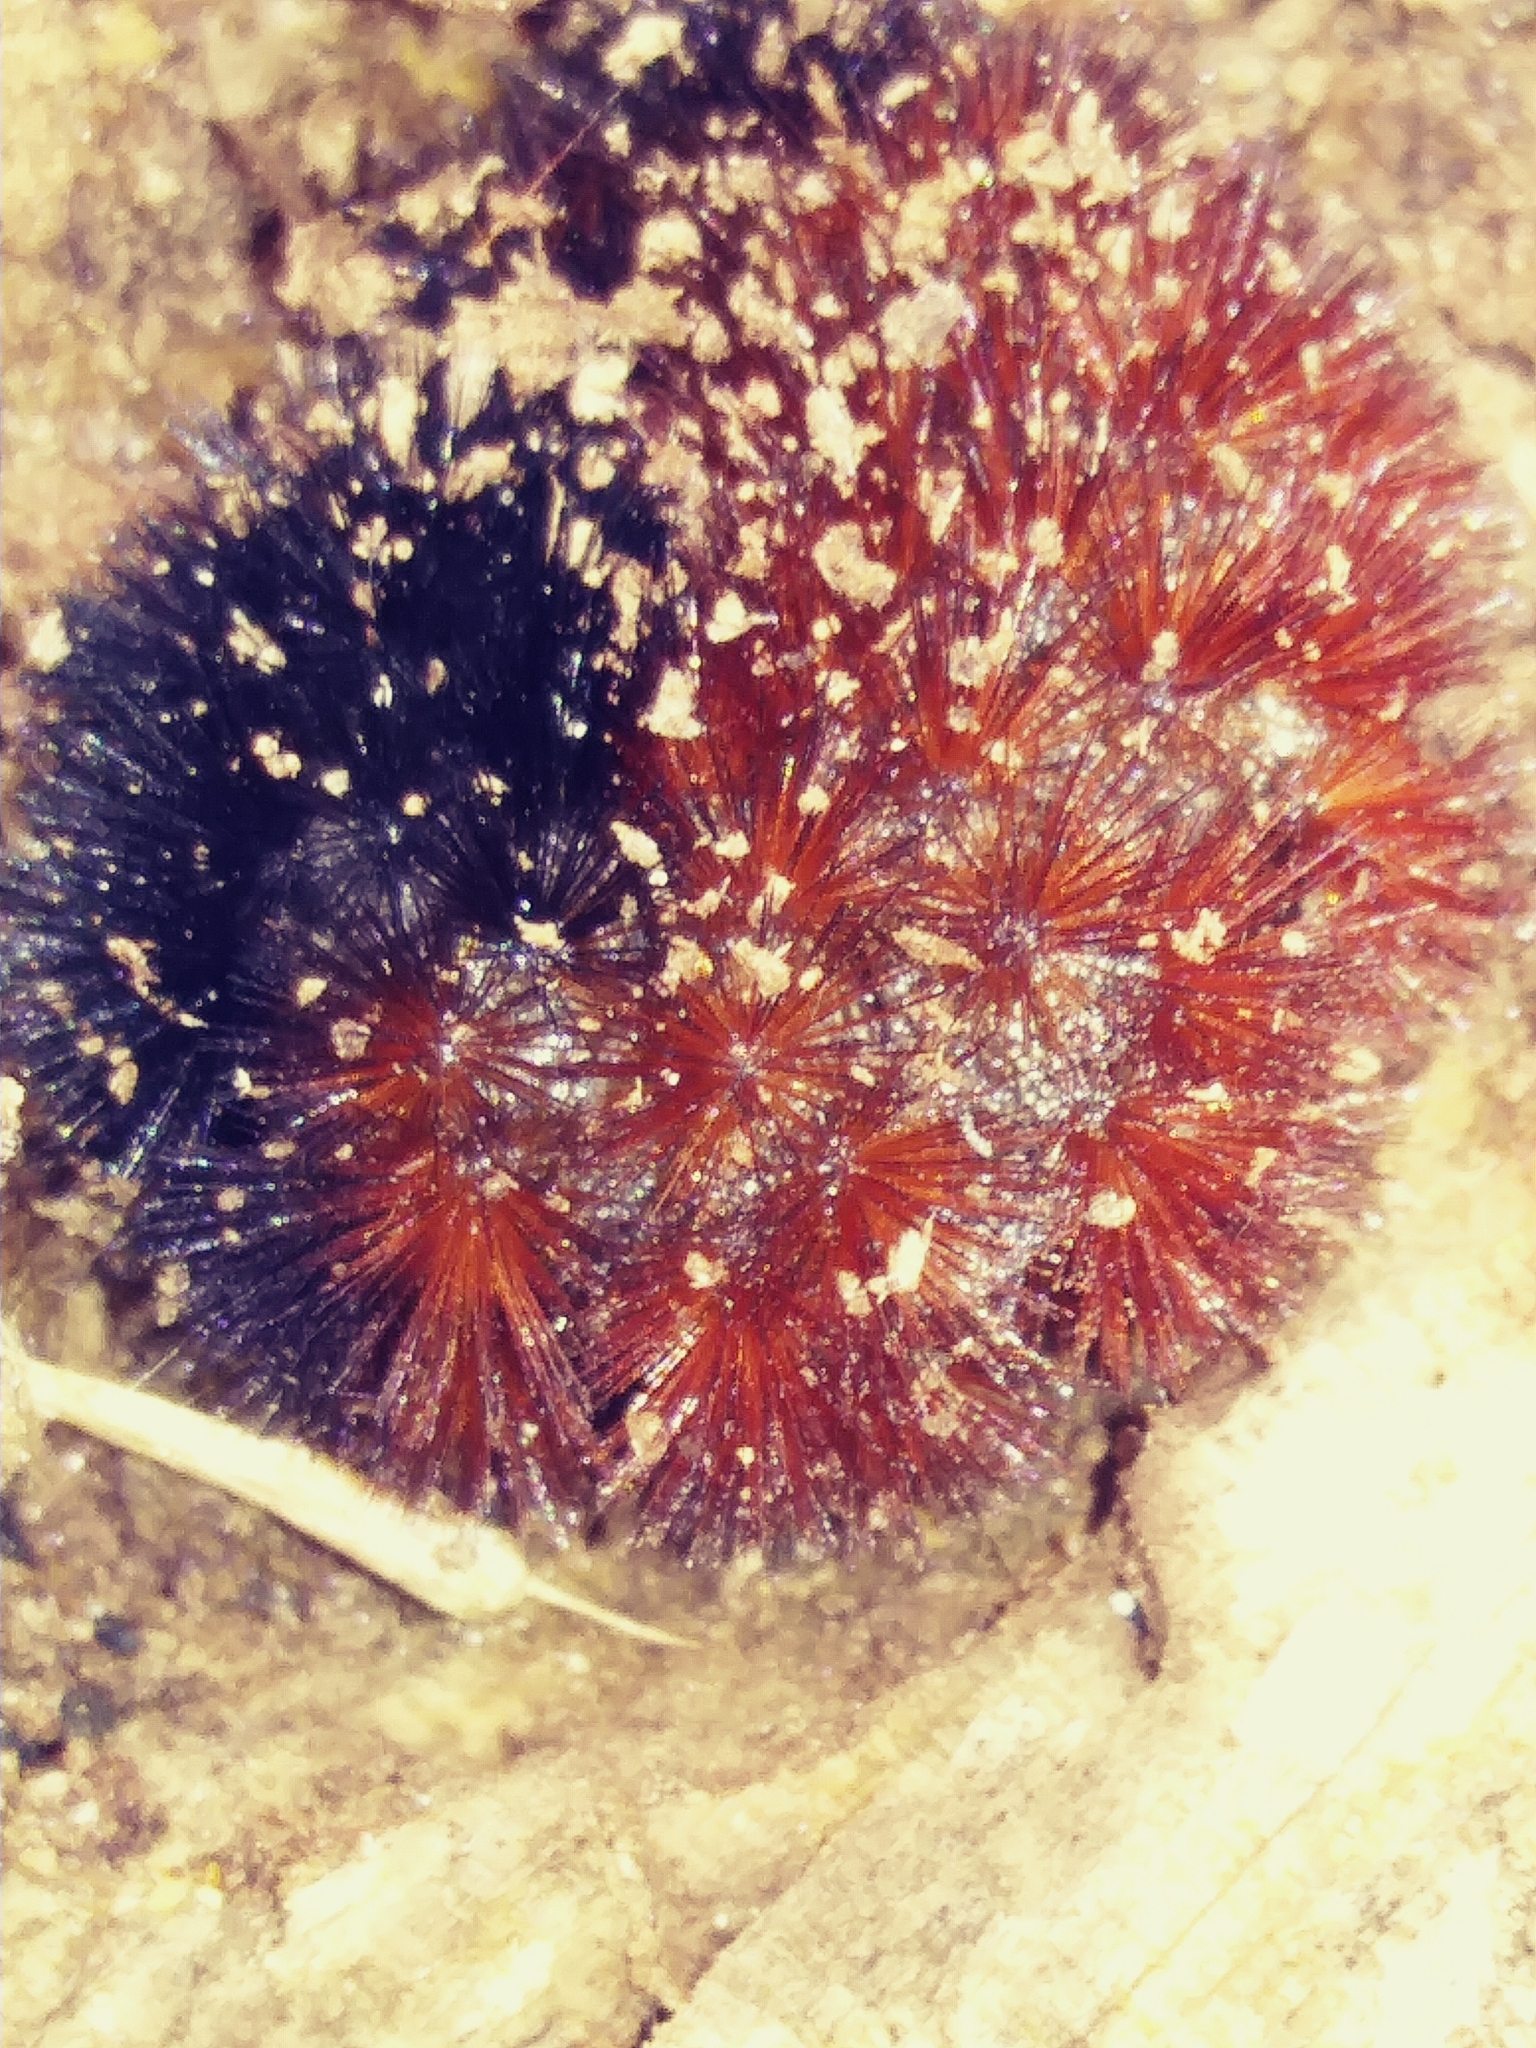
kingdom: Animalia
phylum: Arthropoda
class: Insecta
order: Lepidoptera
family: Erebidae
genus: Pyrrharctia
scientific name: Pyrrharctia isabella
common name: Isabella tiger moth
